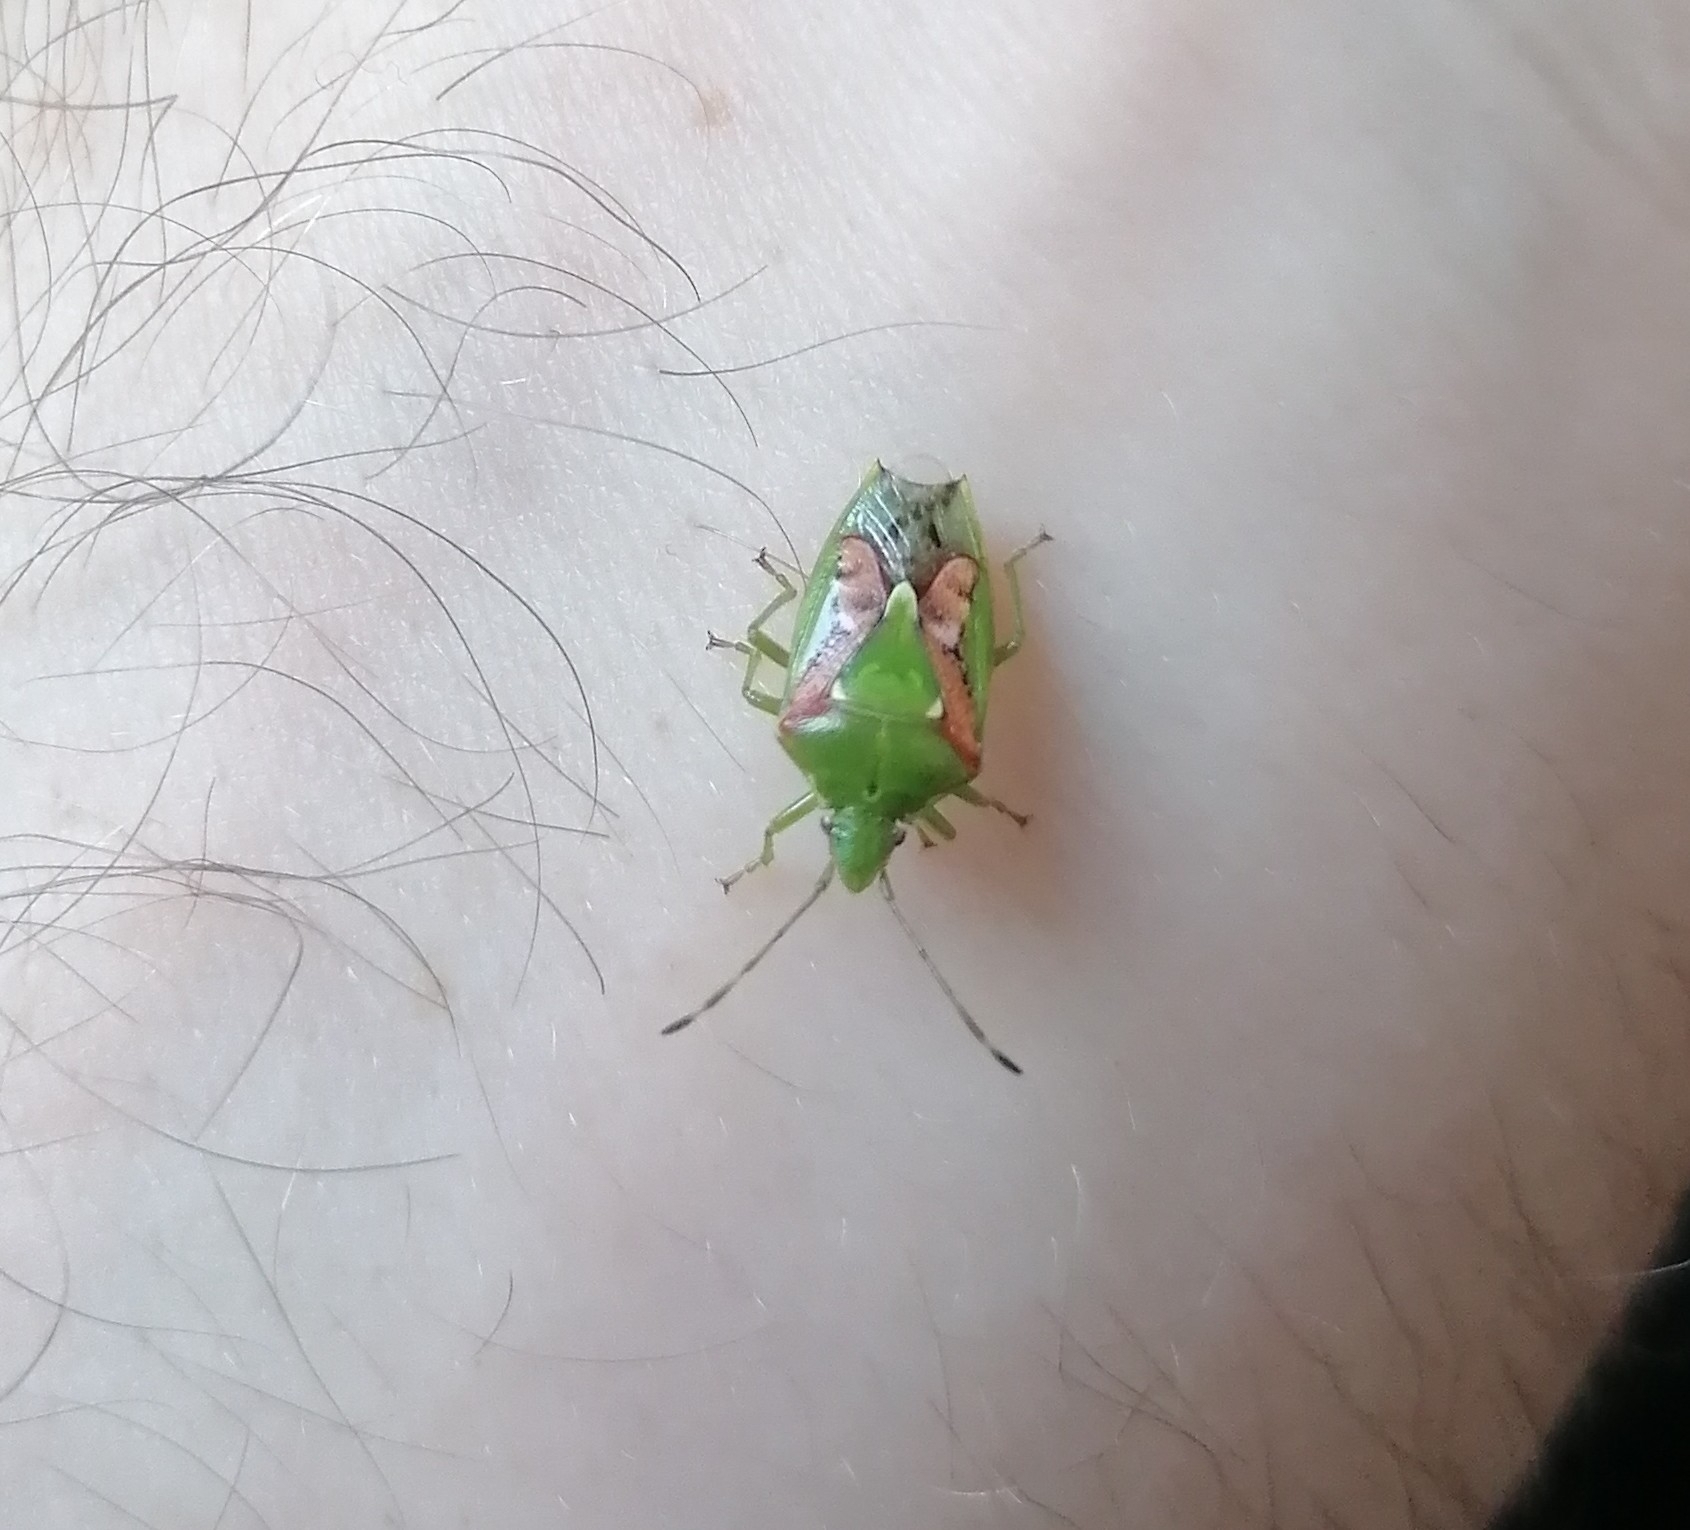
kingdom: Animalia
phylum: Arthropoda
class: Insecta
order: Hemiptera
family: Acanthosomatidae
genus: Cyphostethus
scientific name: Cyphostethus tristriatus
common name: Juniper shieldbug
